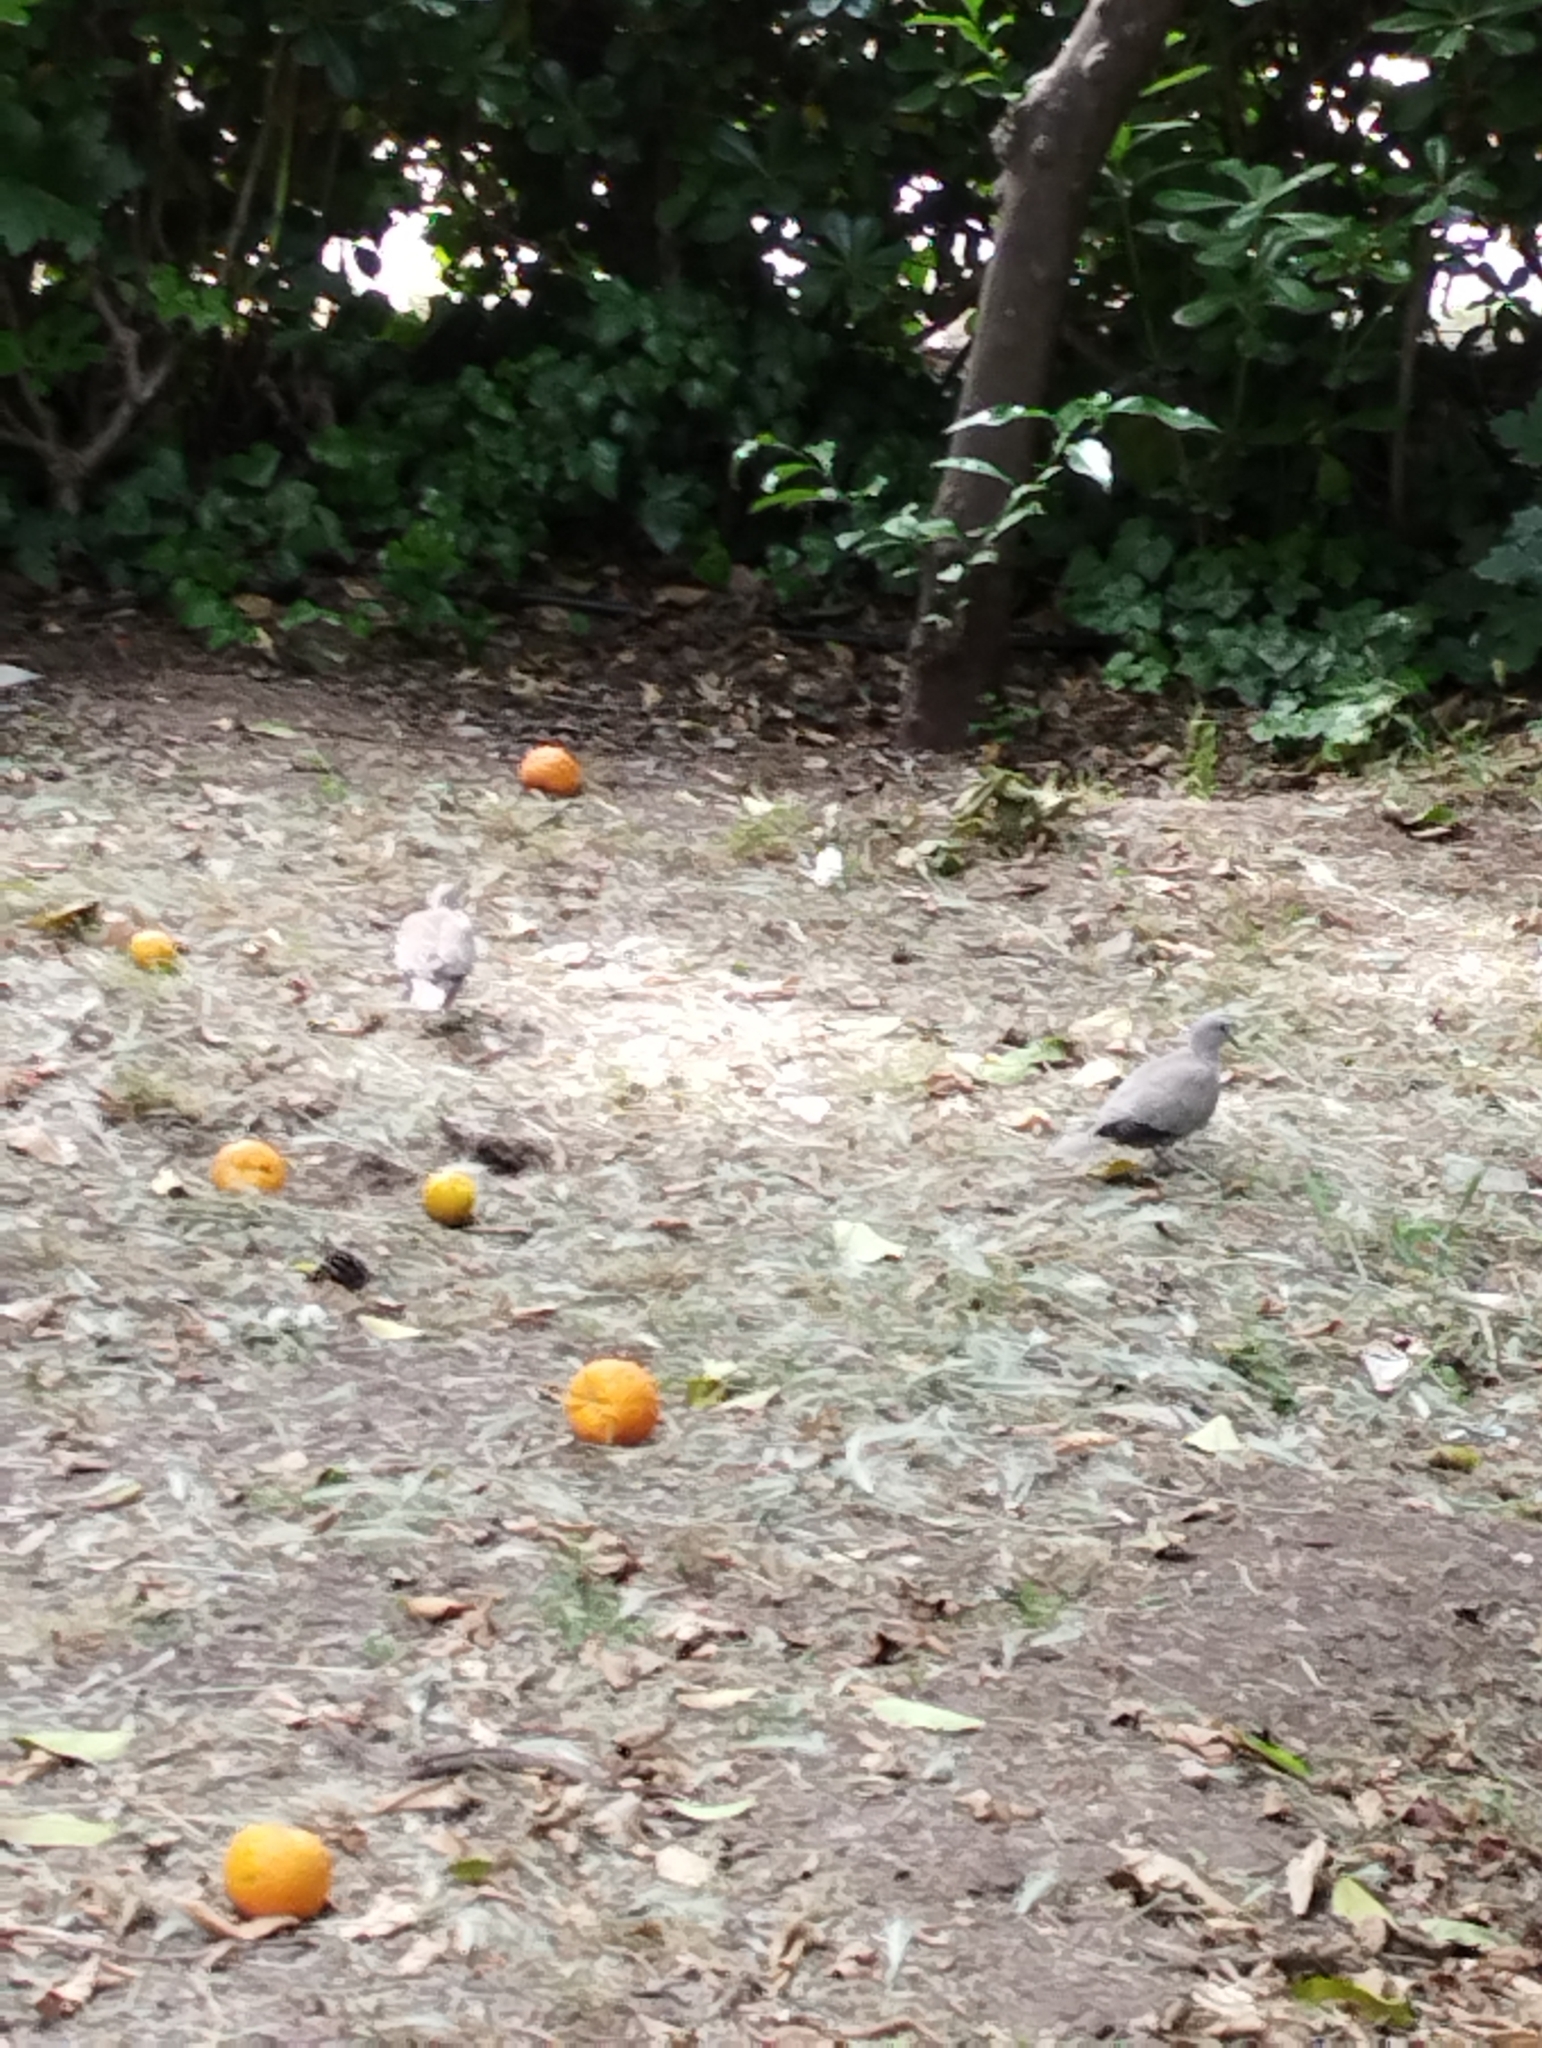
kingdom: Animalia
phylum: Chordata
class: Aves
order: Columbiformes
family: Columbidae
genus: Streptopelia
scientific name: Streptopelia decaocto
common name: Eurasian collared dove
